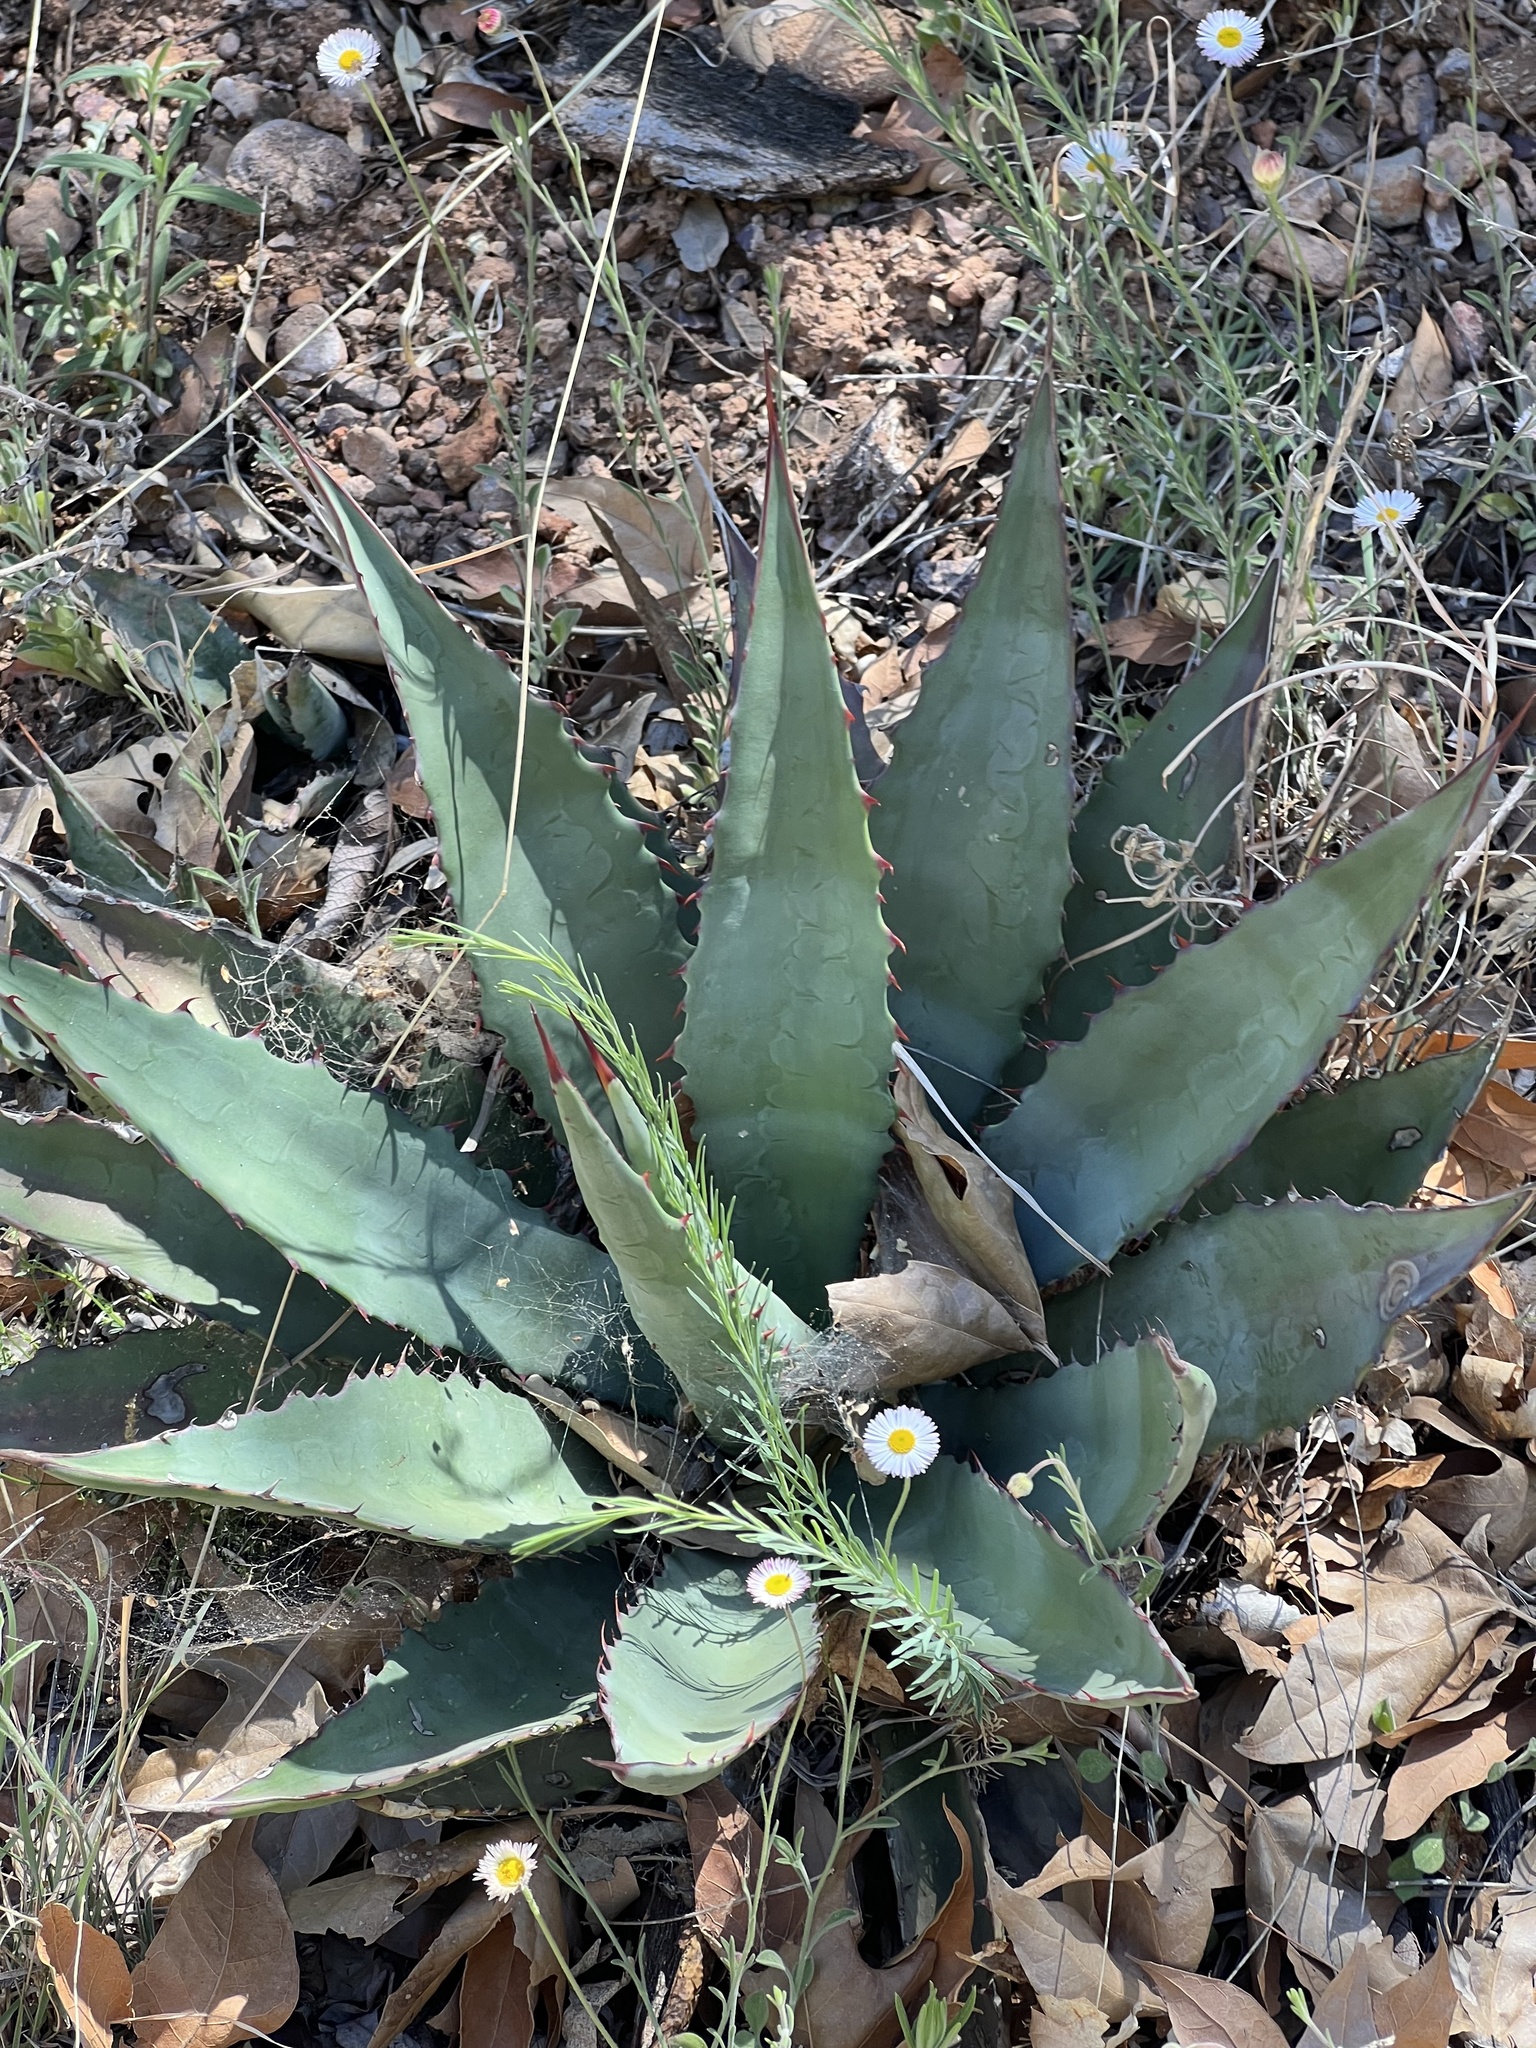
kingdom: Plantae
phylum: Tracheophyta
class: Liliopsida
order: Asparagales
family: Asparagaceae
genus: Agave
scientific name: Agave palmeri
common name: Palmer agave
